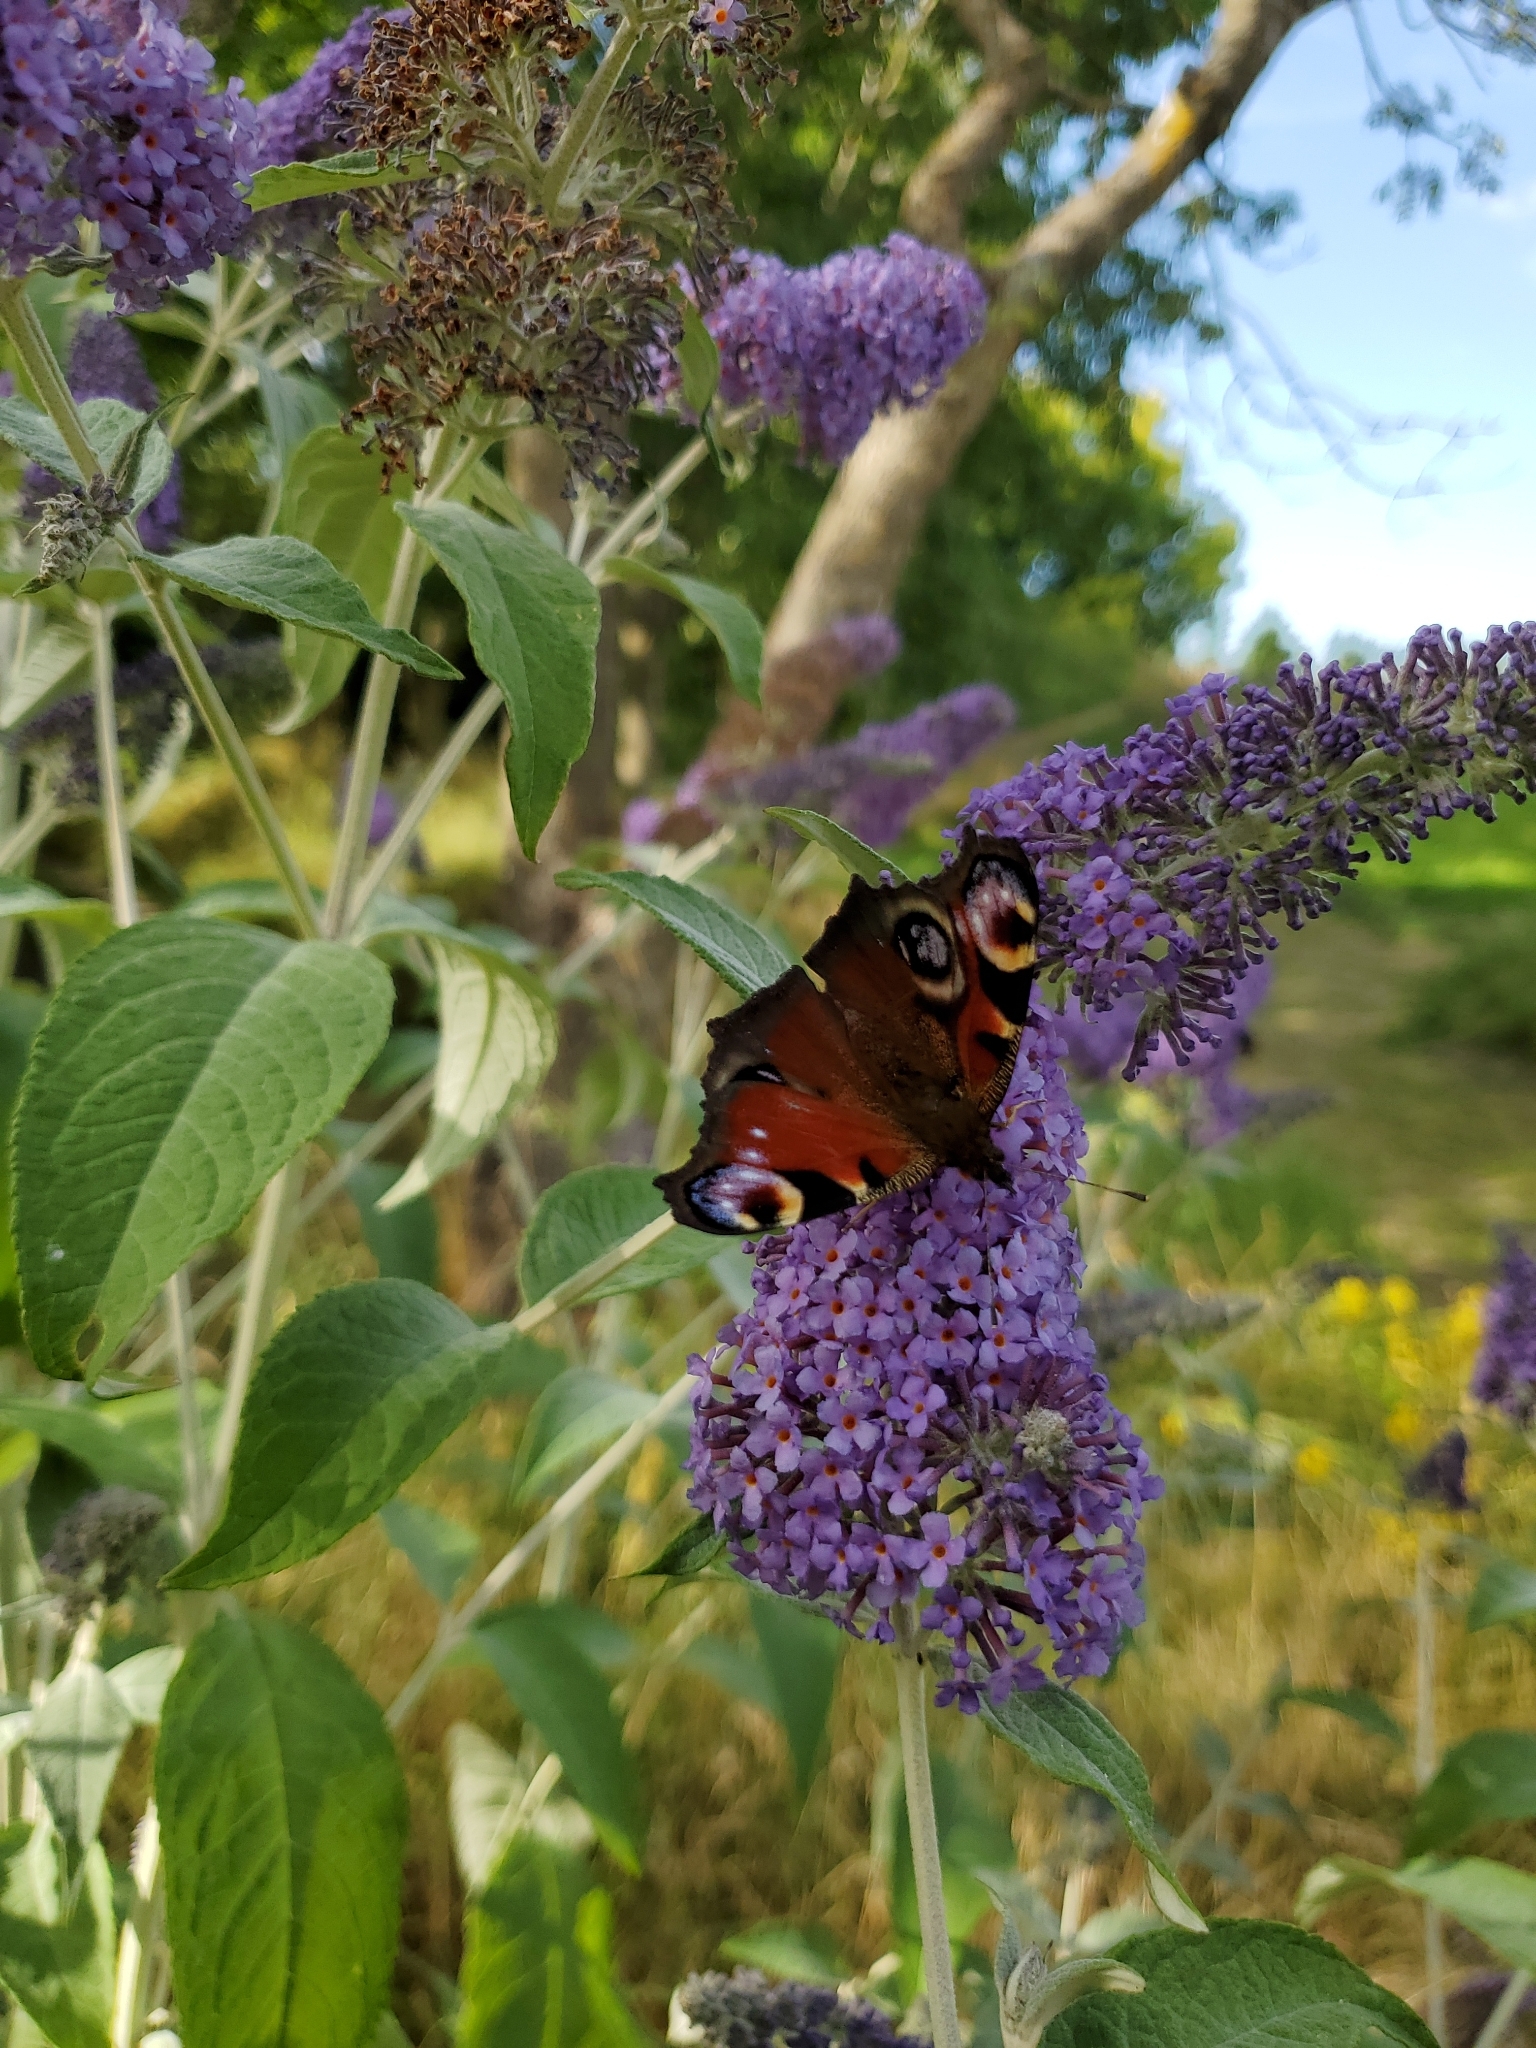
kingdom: Animalia
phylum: Arthropoda
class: Insecta
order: Lepidoptera
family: Nymphalidae
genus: Aglais
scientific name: Aglais io
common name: Peacock
